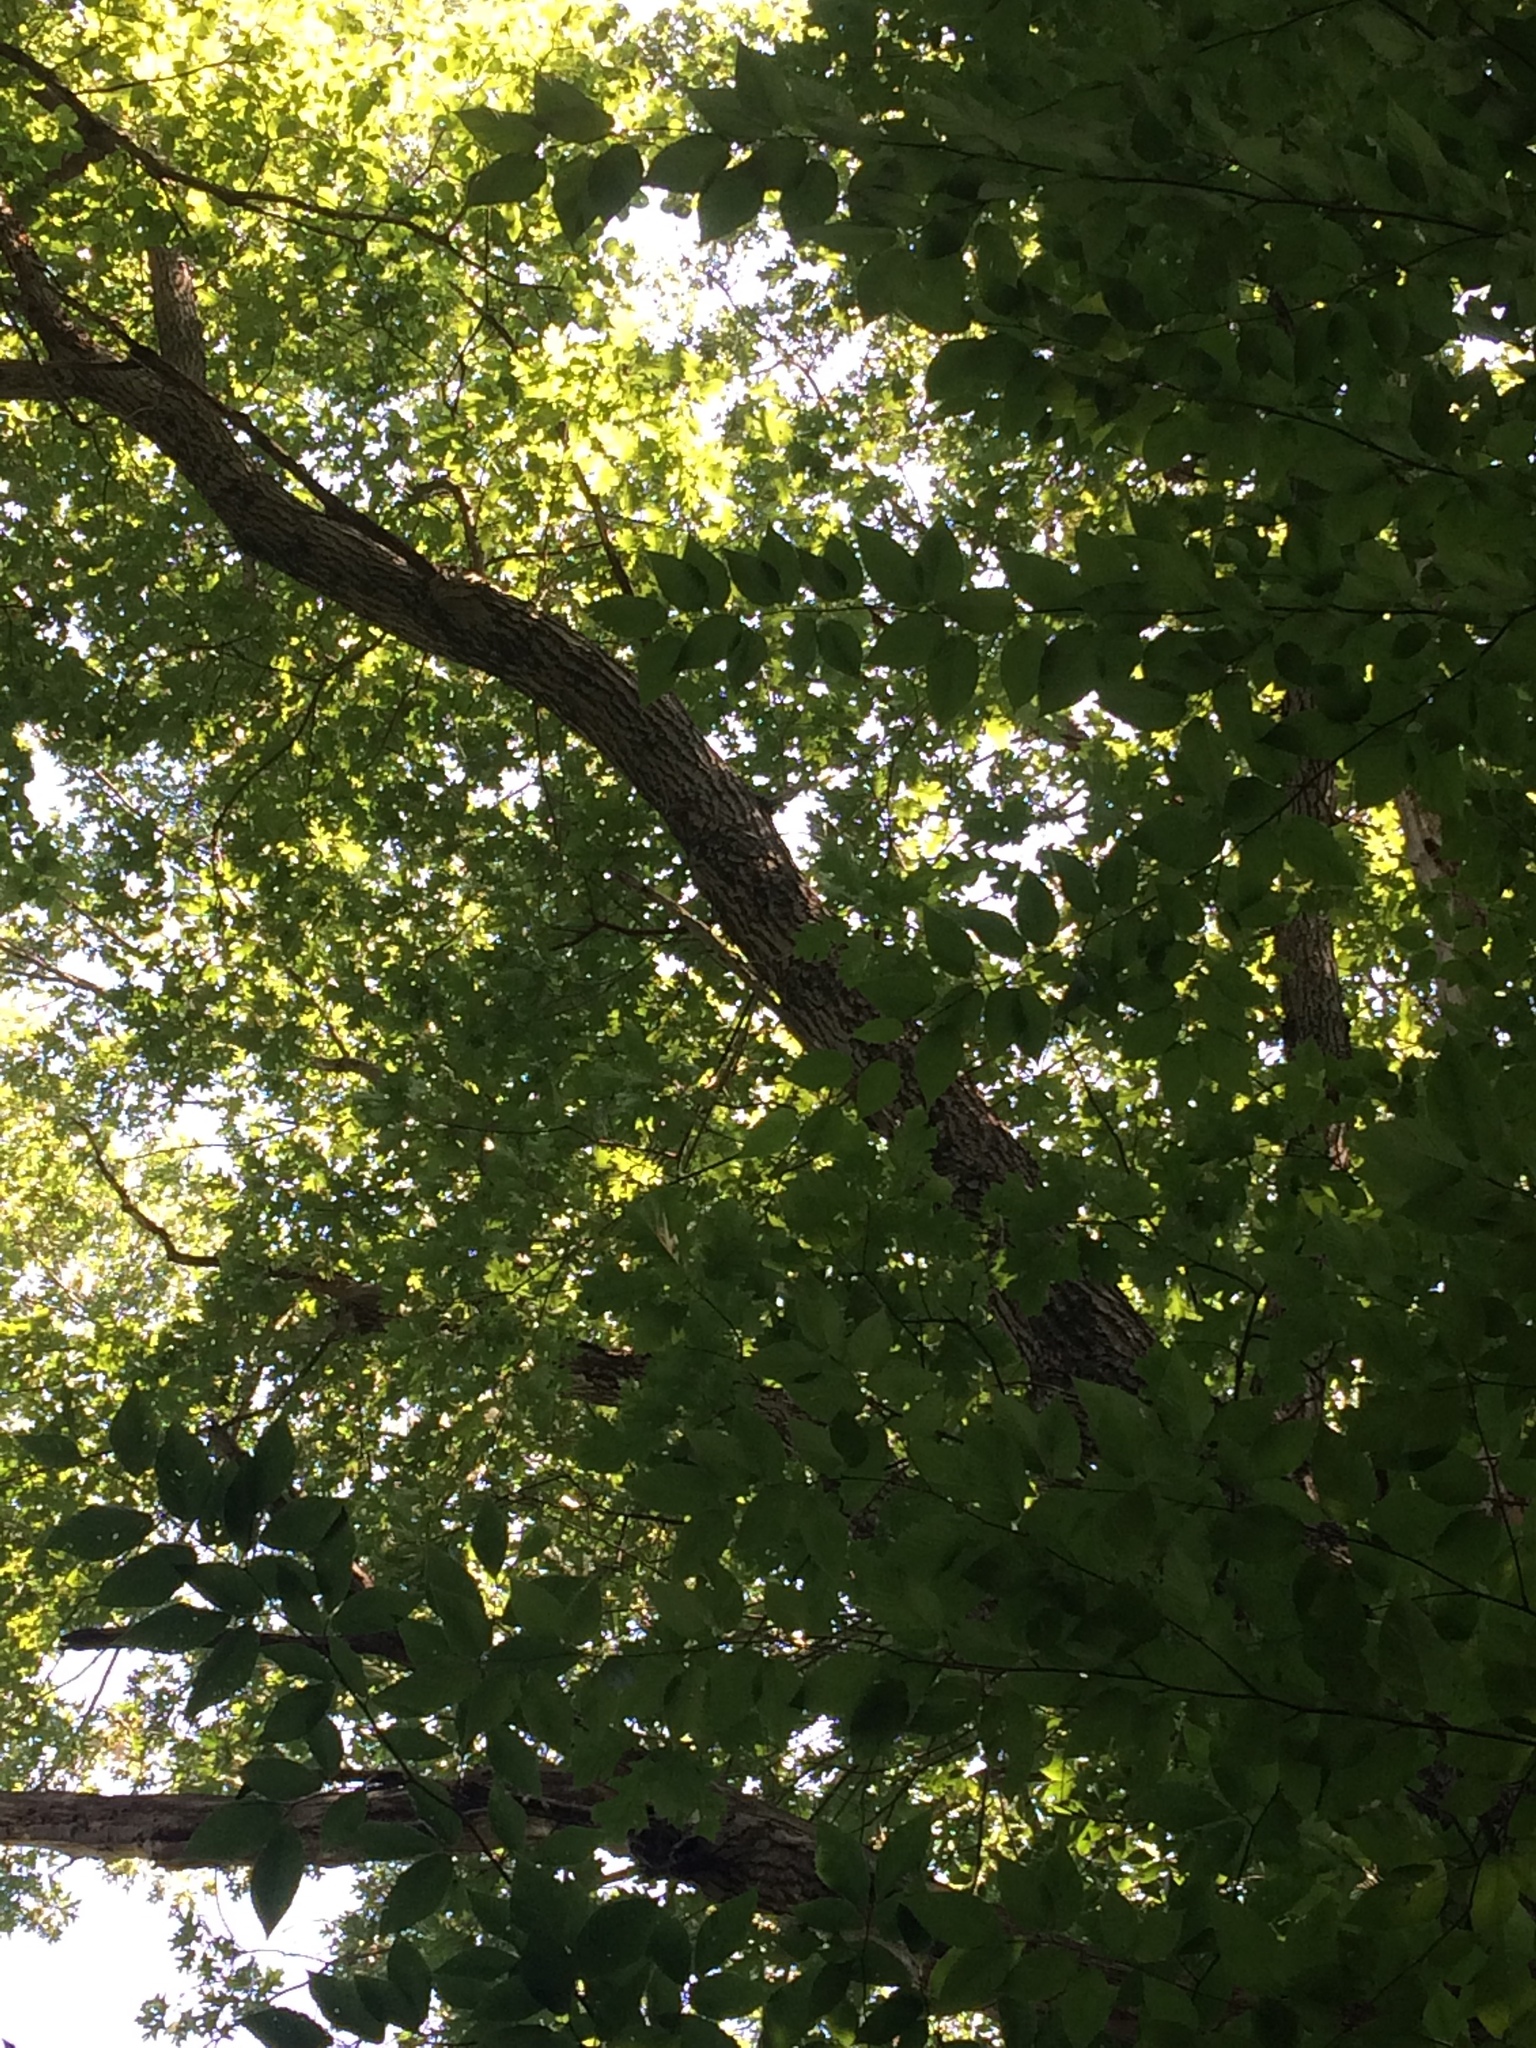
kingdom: Plantae
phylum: Tracheophyta
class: Magnoliopsida
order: Fagales
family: Fagaceae
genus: Quercus
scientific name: Quercus rubra
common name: Red oak
